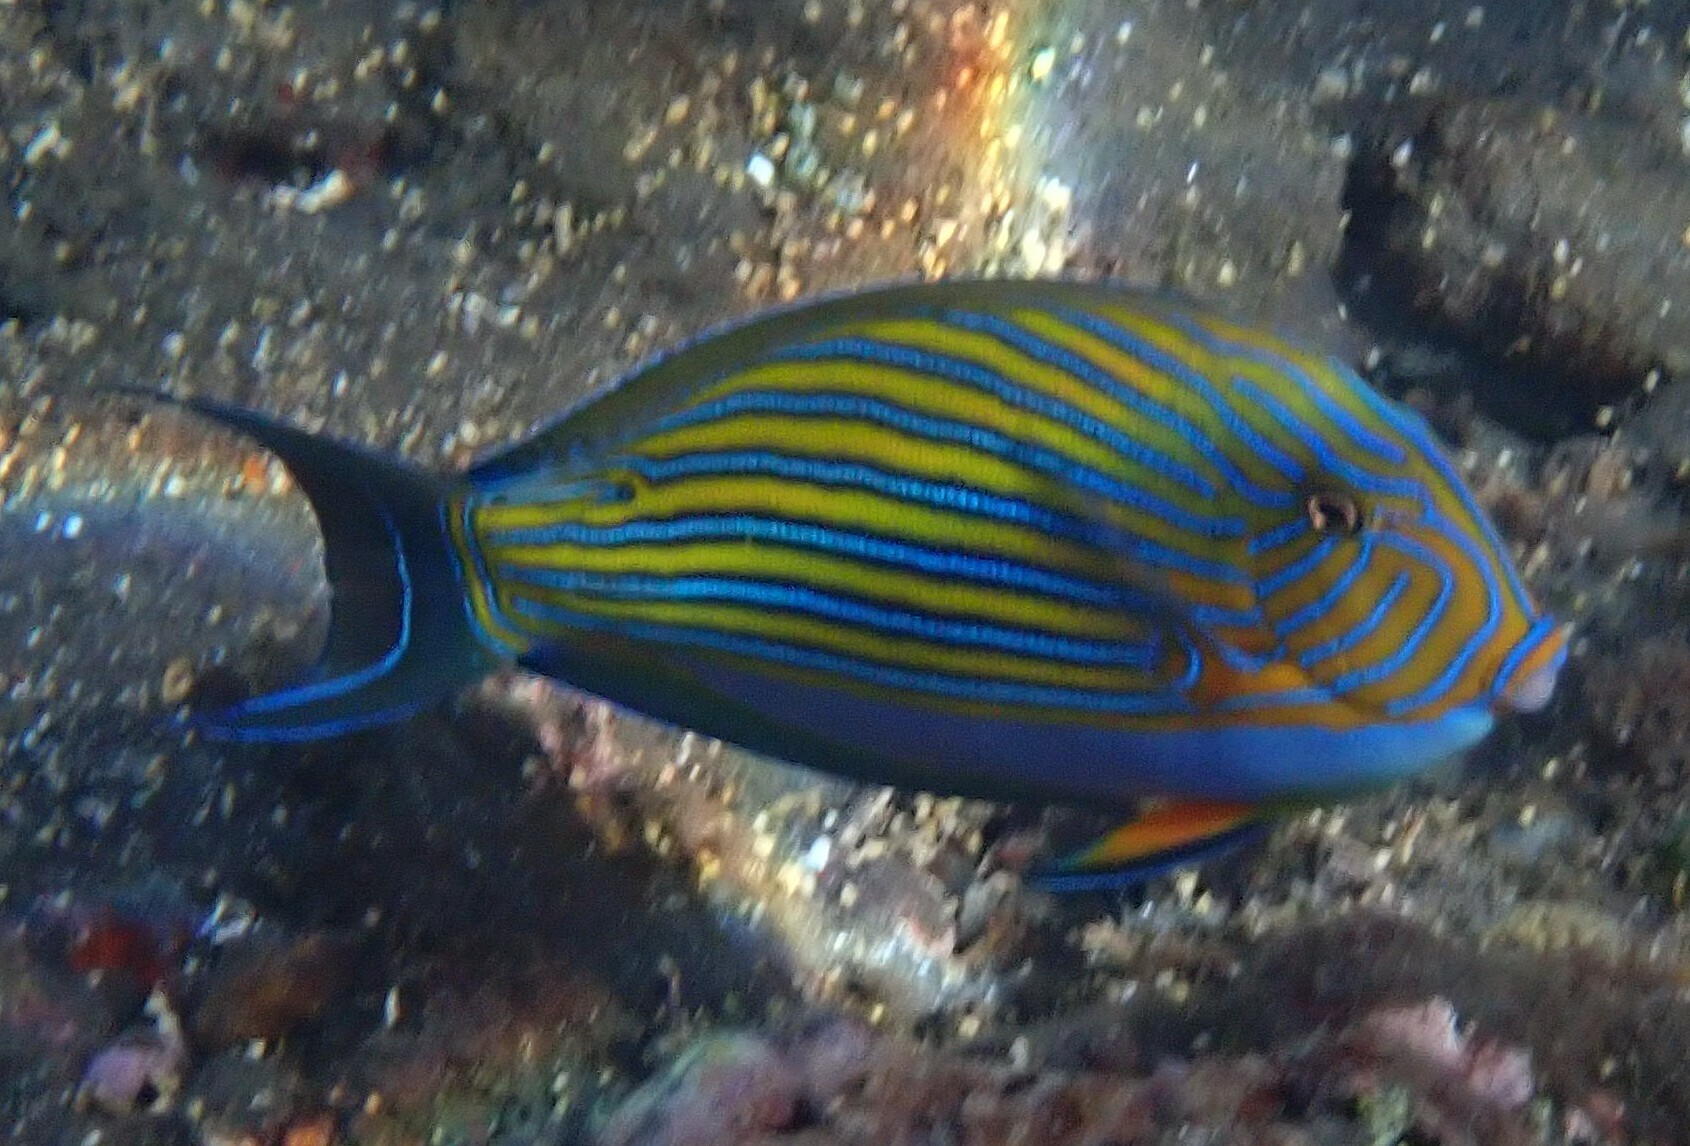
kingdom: Animalia
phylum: Chordata
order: Perciformes
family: Acanthuridae
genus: Acanthurus
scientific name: Acanthurus lineatus
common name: Striped surgeonfish
